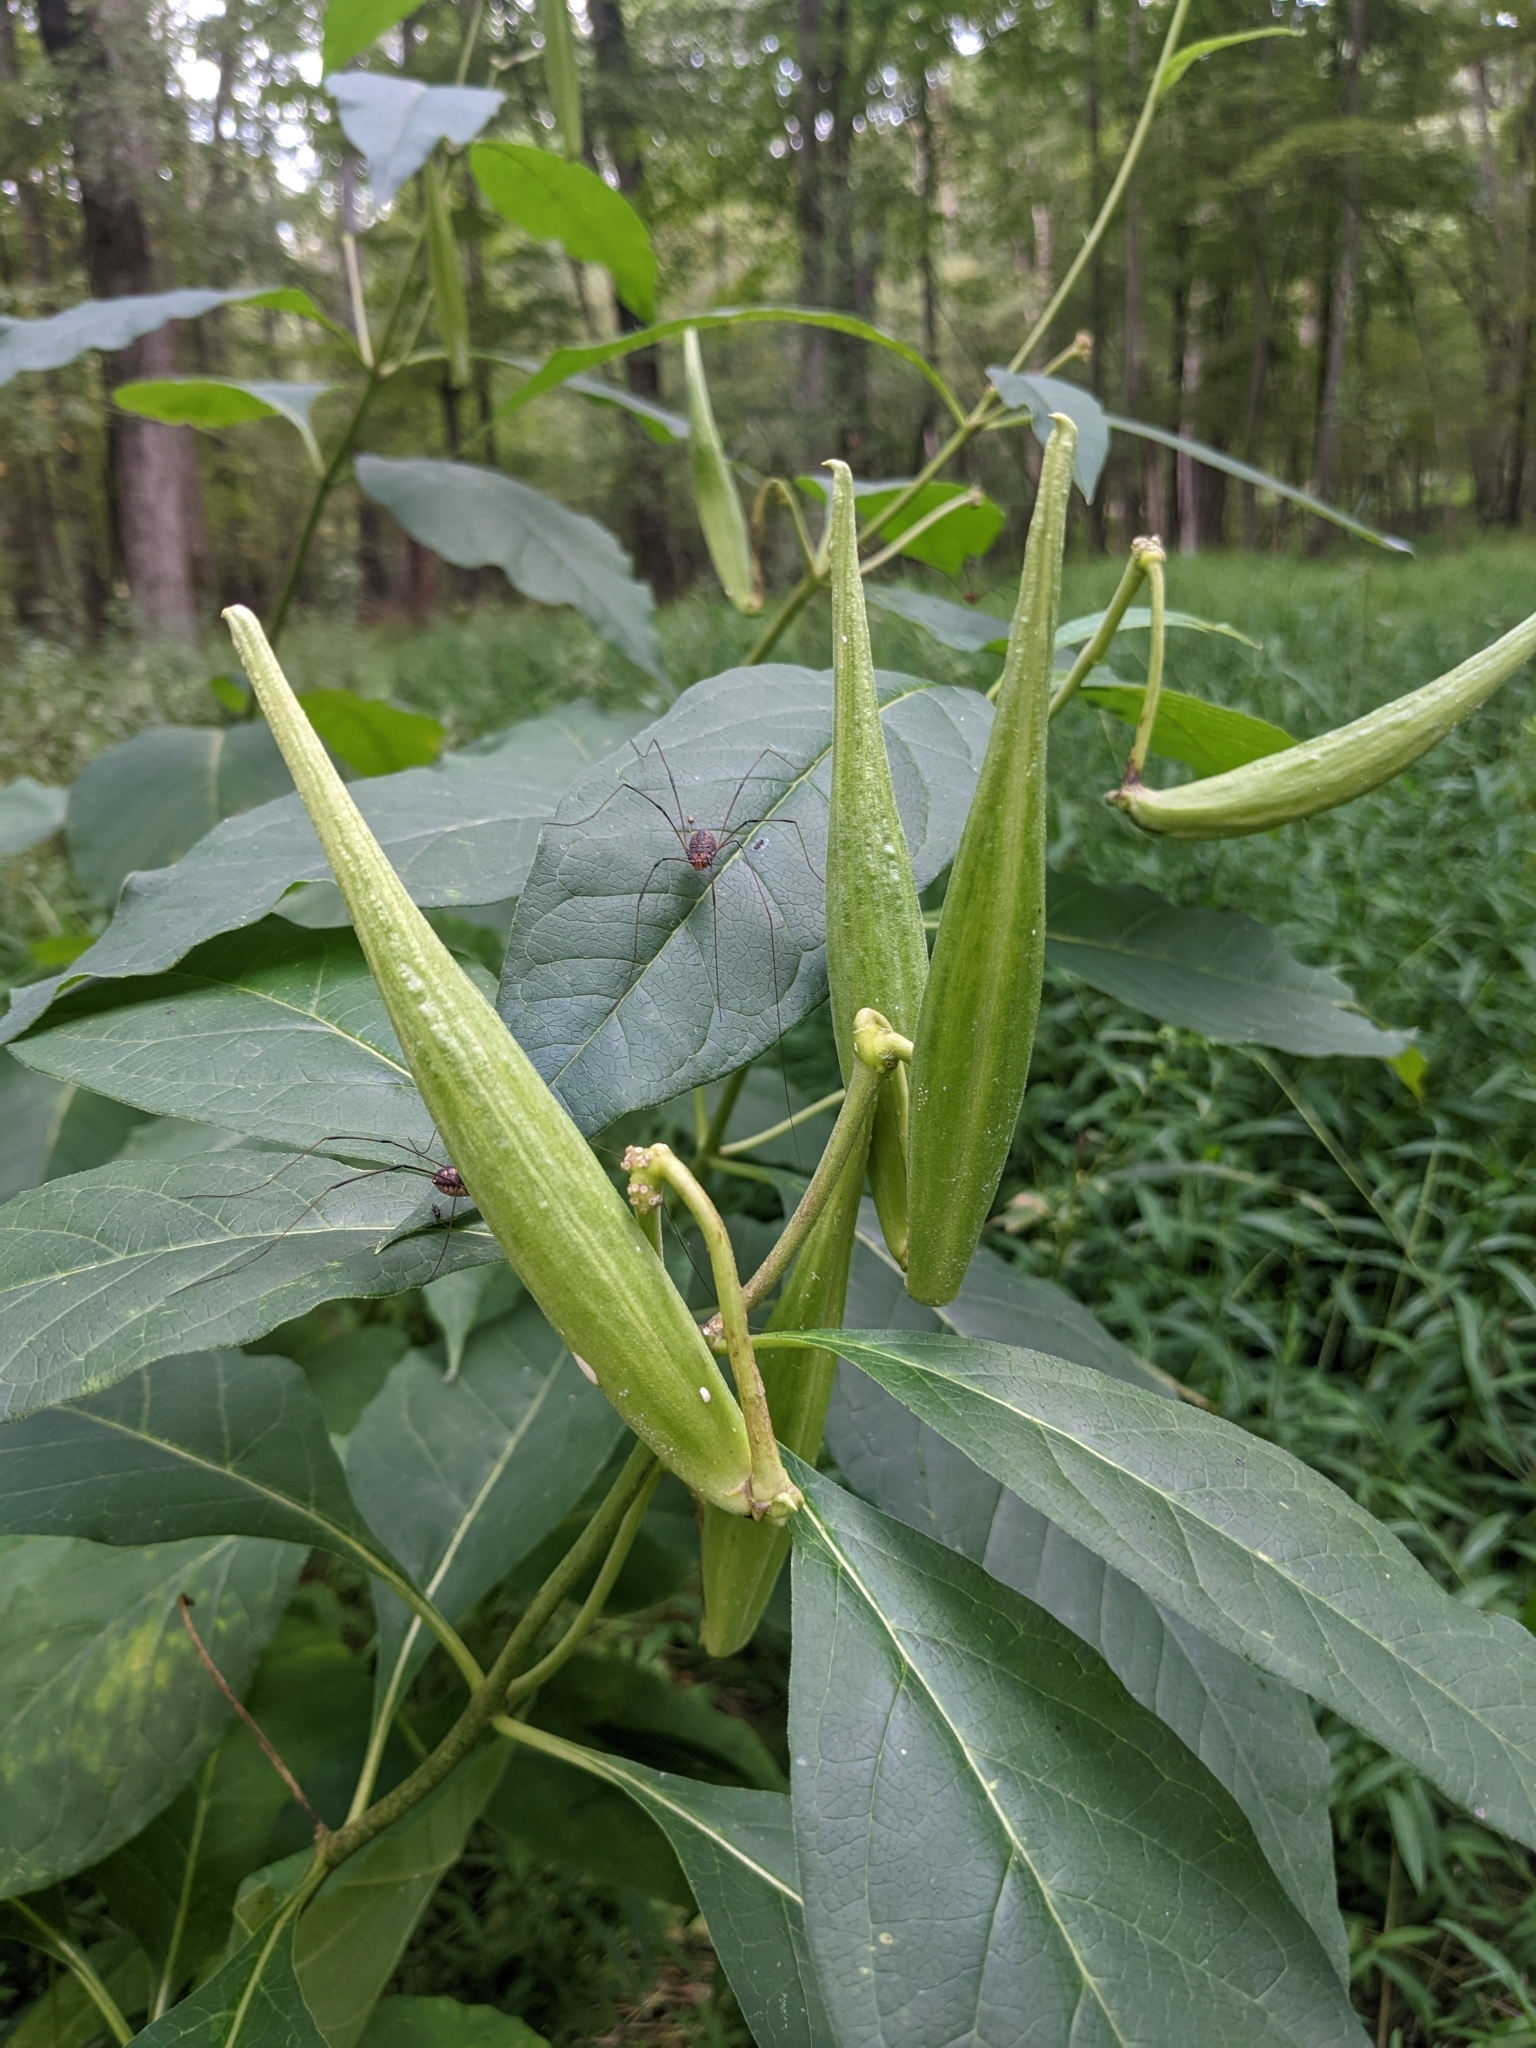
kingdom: Plantae
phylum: Tracheophyta
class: Magnoliopsida
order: Gentianales
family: Apocynaceae
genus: Asclepias
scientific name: Asclepias exaltata
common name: Poke milkweed
